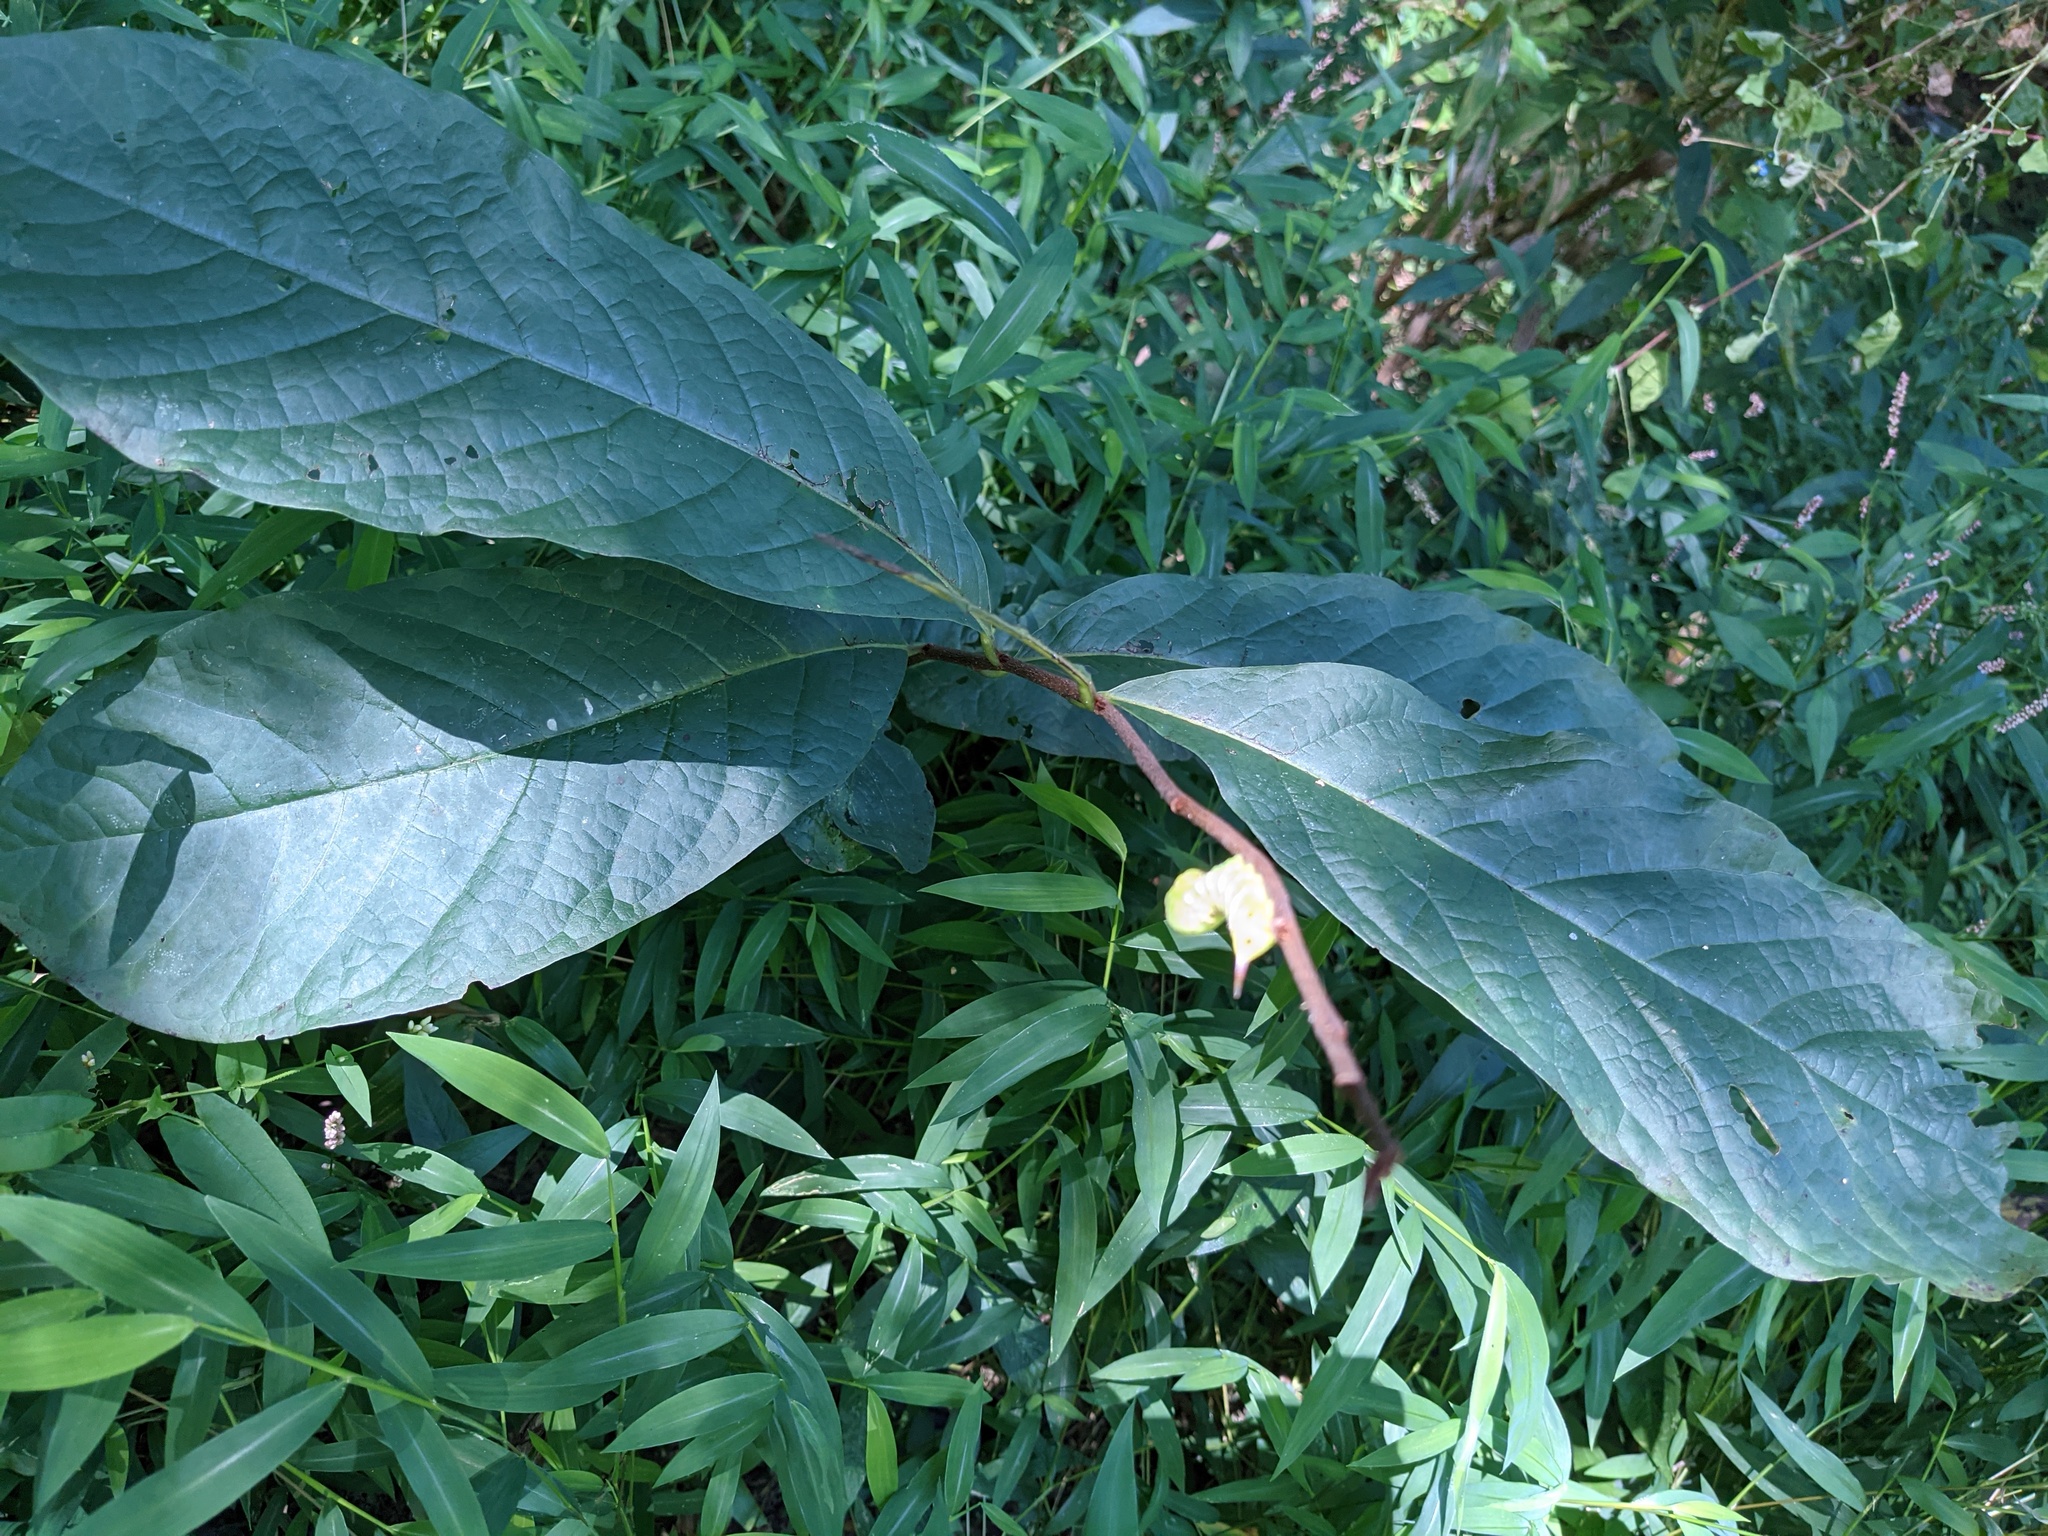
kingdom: Plantae
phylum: Tracheophyta
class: Magnoliopsida
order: Magnoliales
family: Annonaceae
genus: Asimina
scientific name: Asimina triloba
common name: Dog-banana
